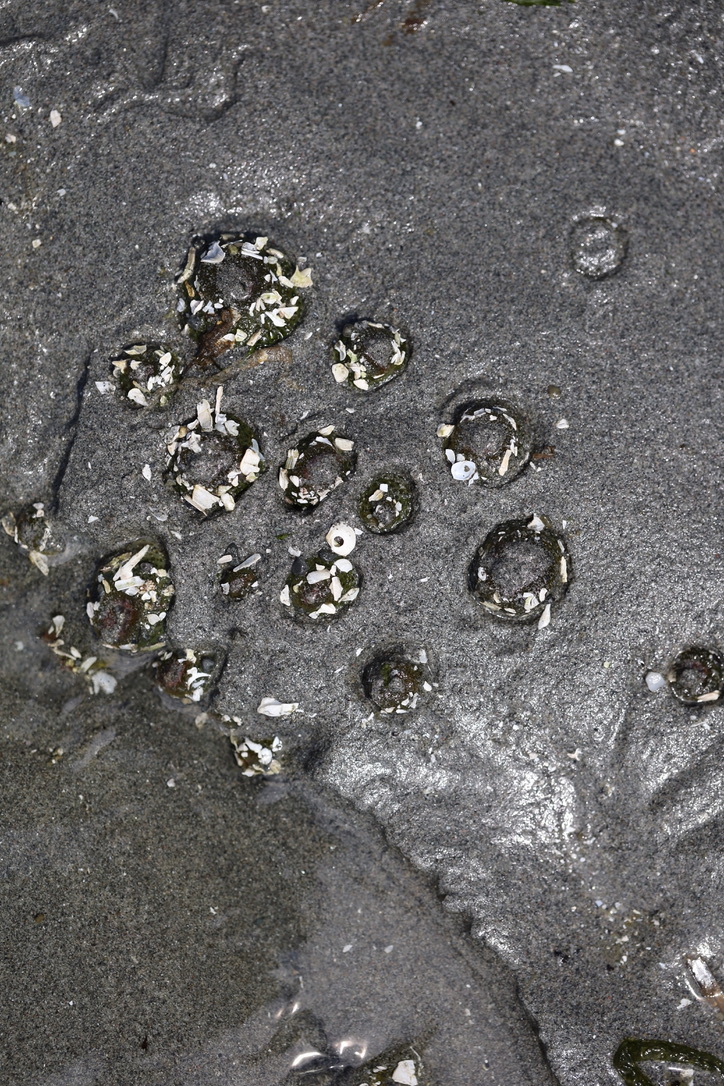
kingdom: Animalia
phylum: Cnidaria
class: Anthozoa
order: Actiniaria
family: Actiniidae
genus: Anthopleura
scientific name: Anthopleura elegantissima
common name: Clonal anemone
